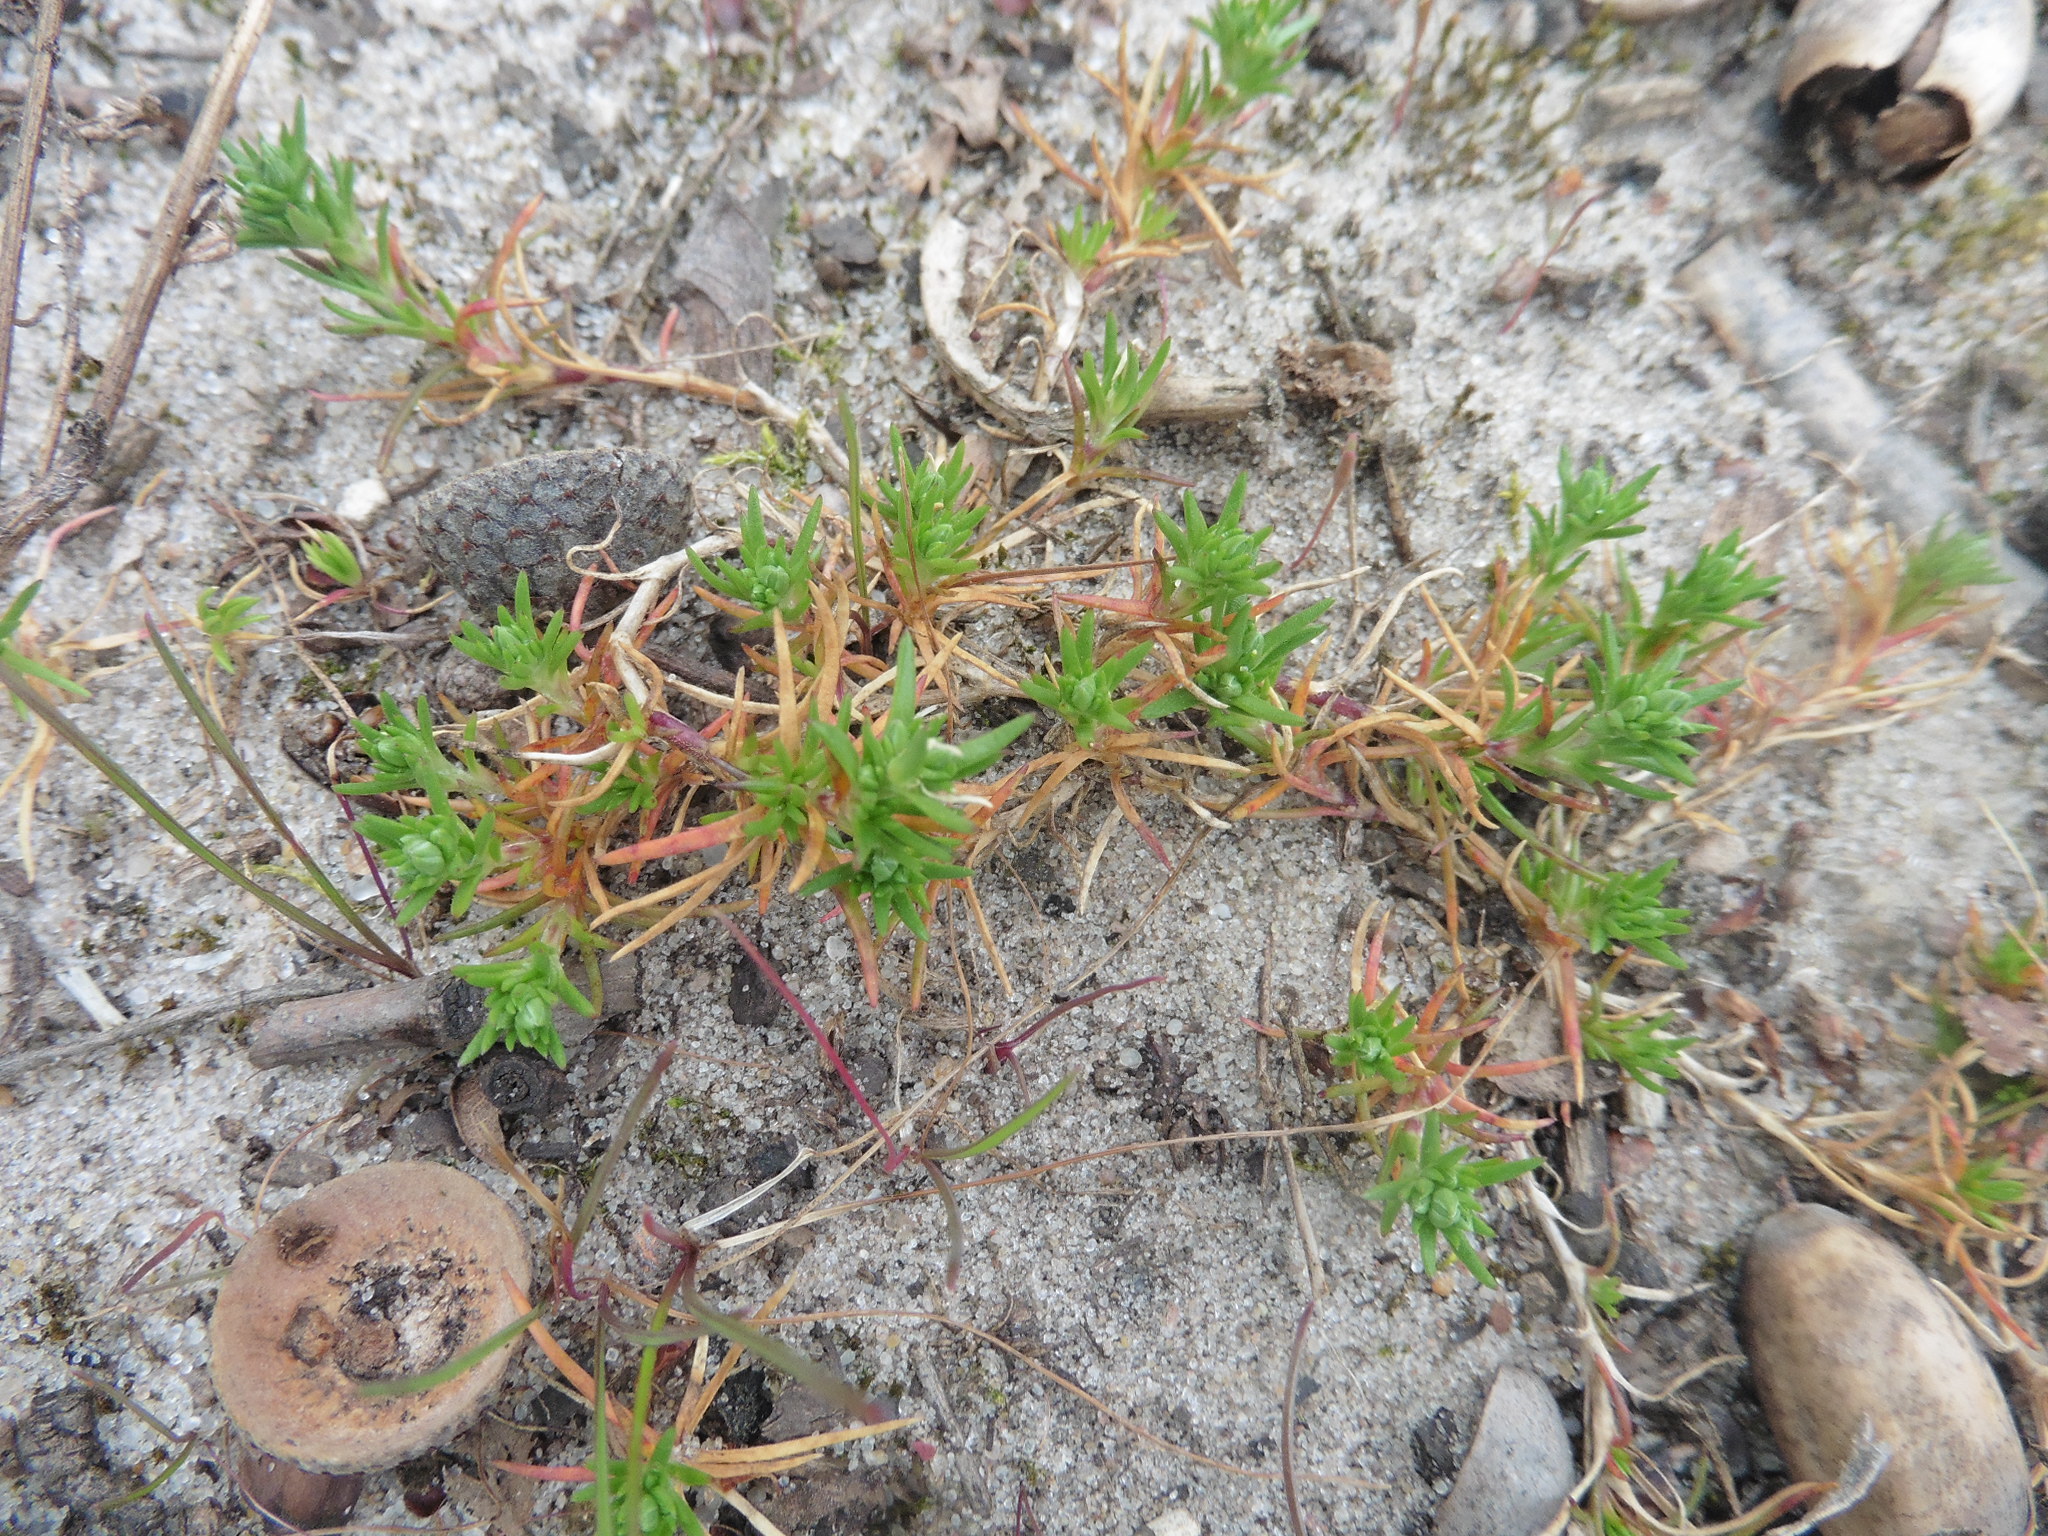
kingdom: Plantae
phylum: Tracheophyta
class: Magnoliopsida
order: Caryophyllales
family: Caryophyllaceae
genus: Scleranthus
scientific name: Scleranthus annuus
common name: Annual knawel
